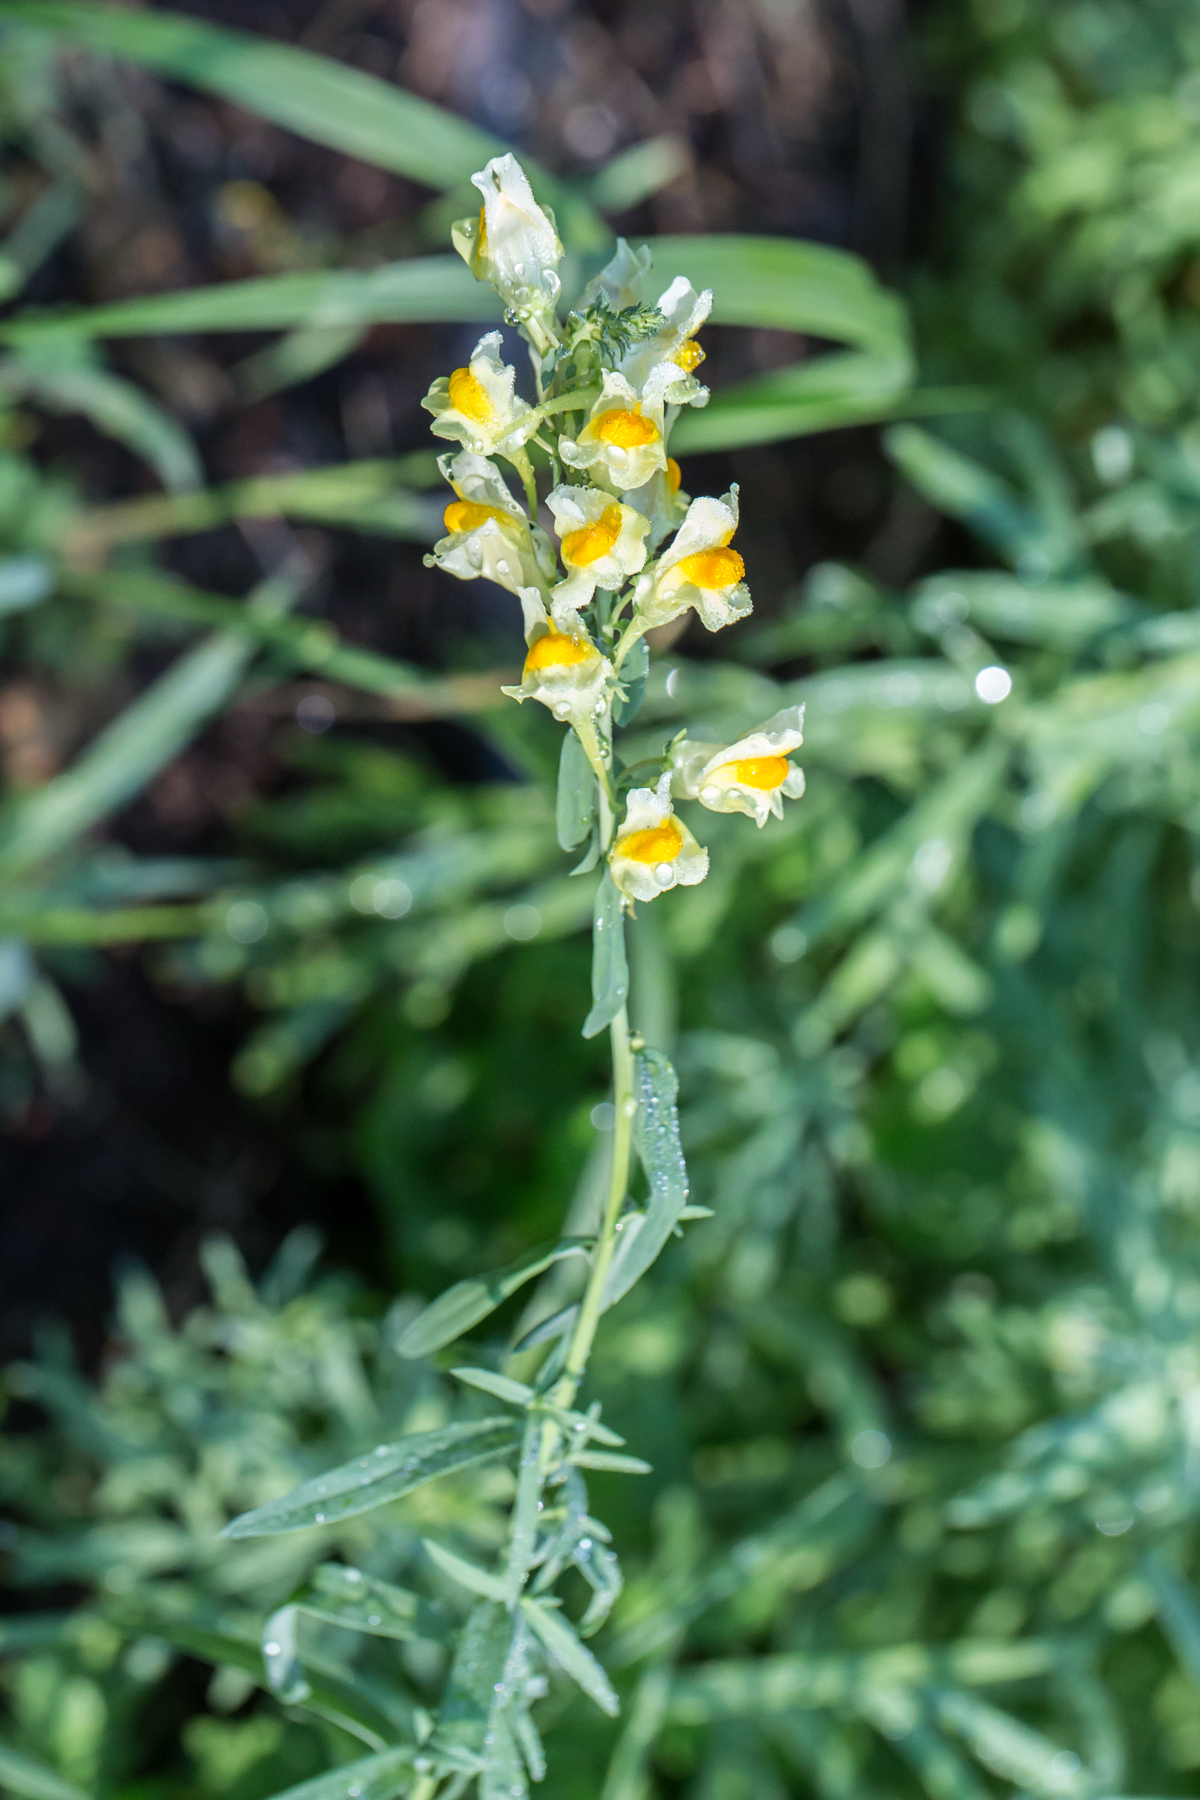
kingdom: Plantae
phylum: Tracheophyta
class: Magnoliopsida
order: Lamiales
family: Plantaginaceae
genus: Linaria
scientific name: Linaria vulgaris
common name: Butter and eggs
